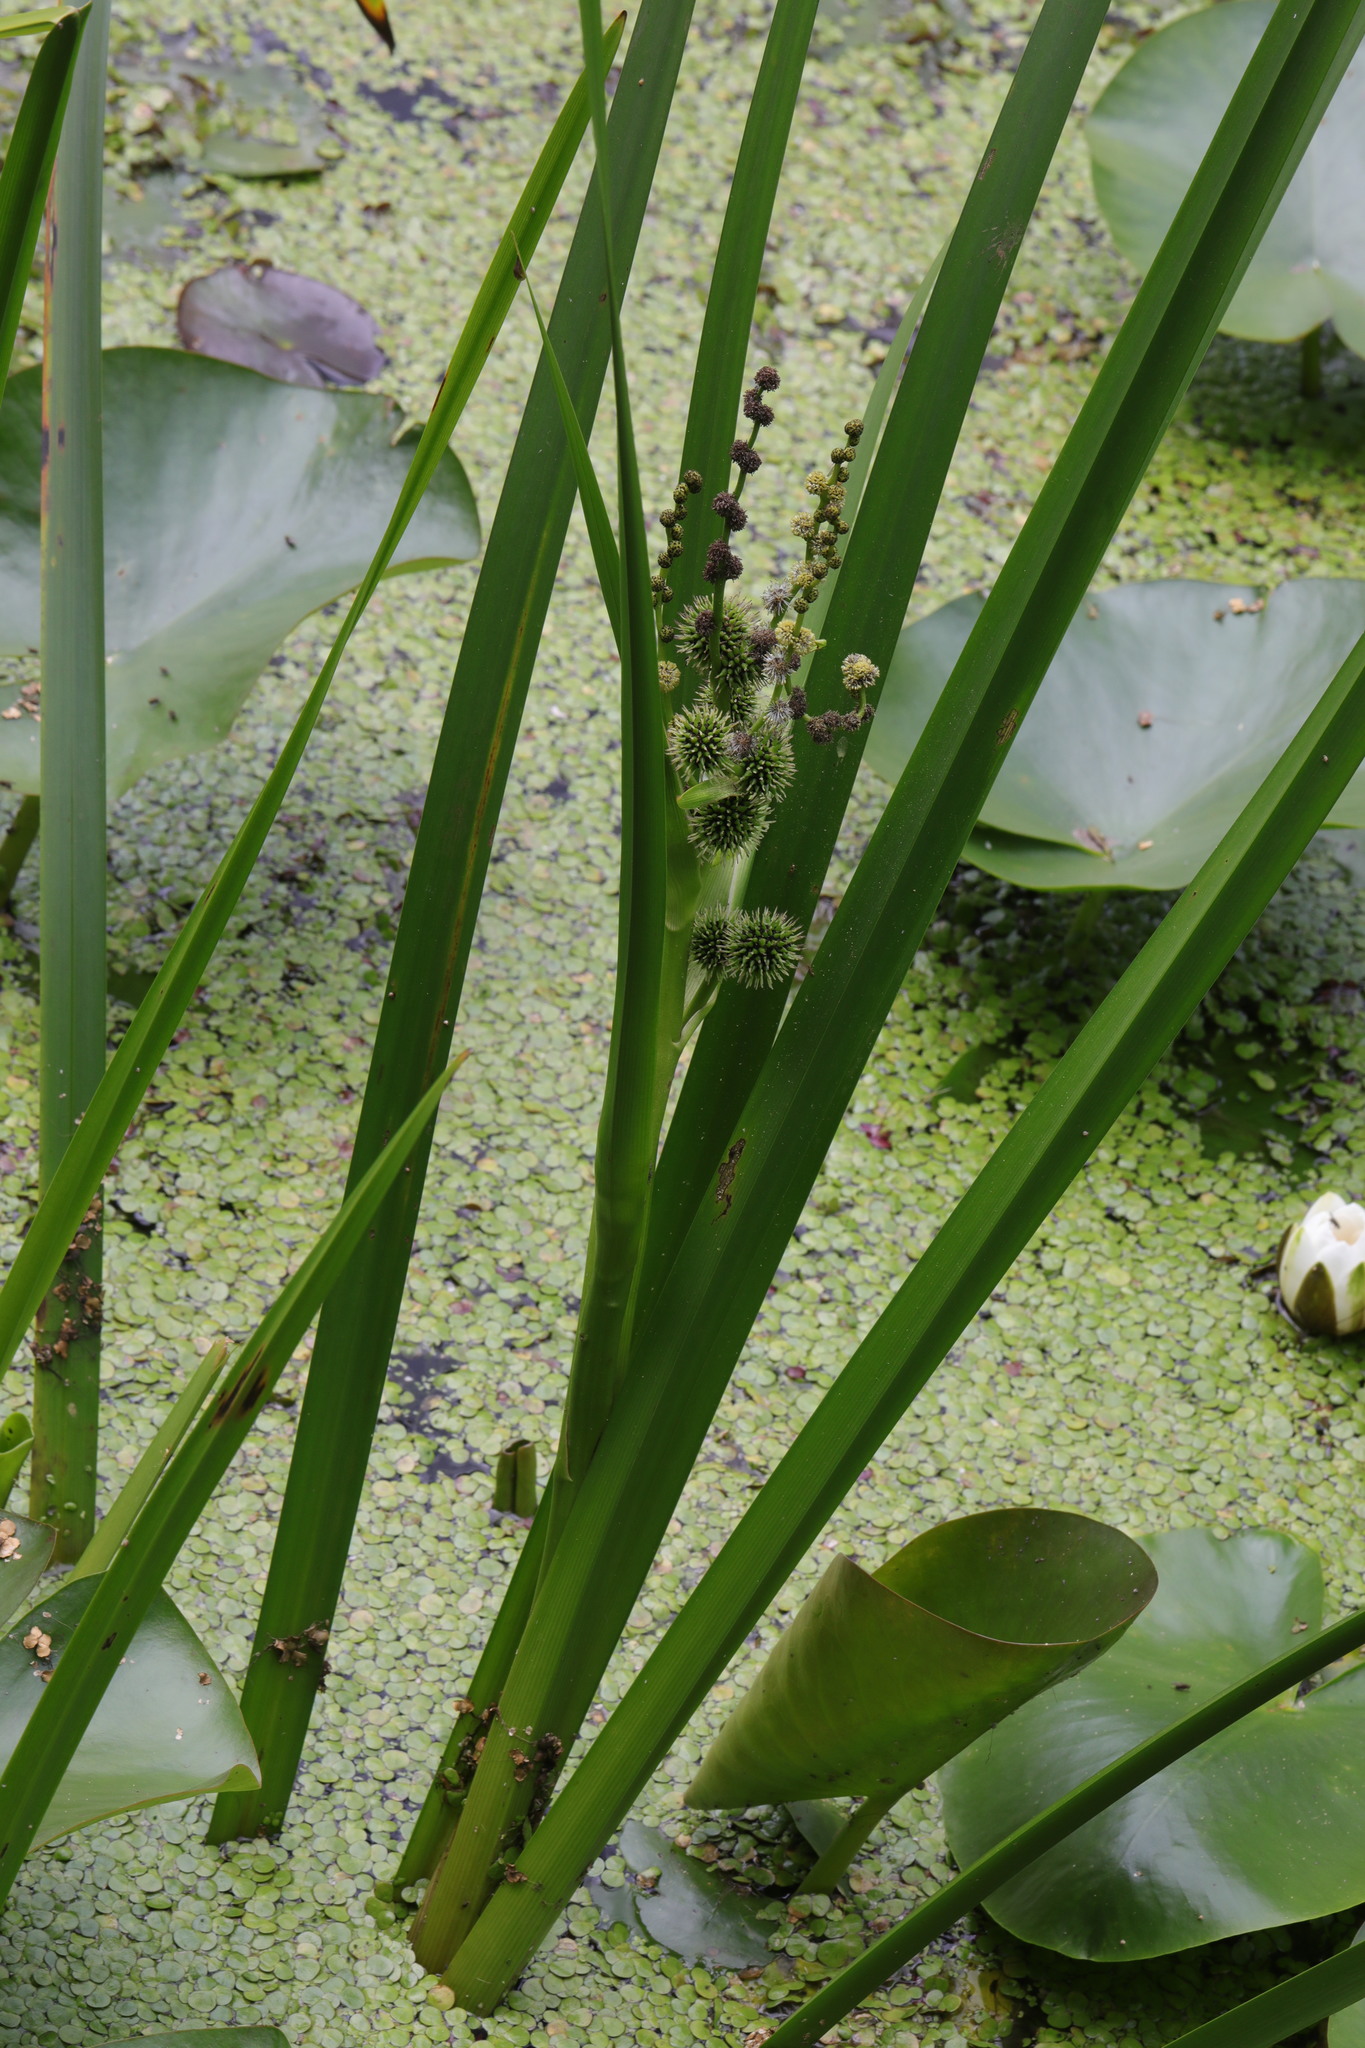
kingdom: Plantae
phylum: Tracheophyta
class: Liliopsida
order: Poales
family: Typhaceae
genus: Sparganium
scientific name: Sparganium erectum
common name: Branched bur-reed
